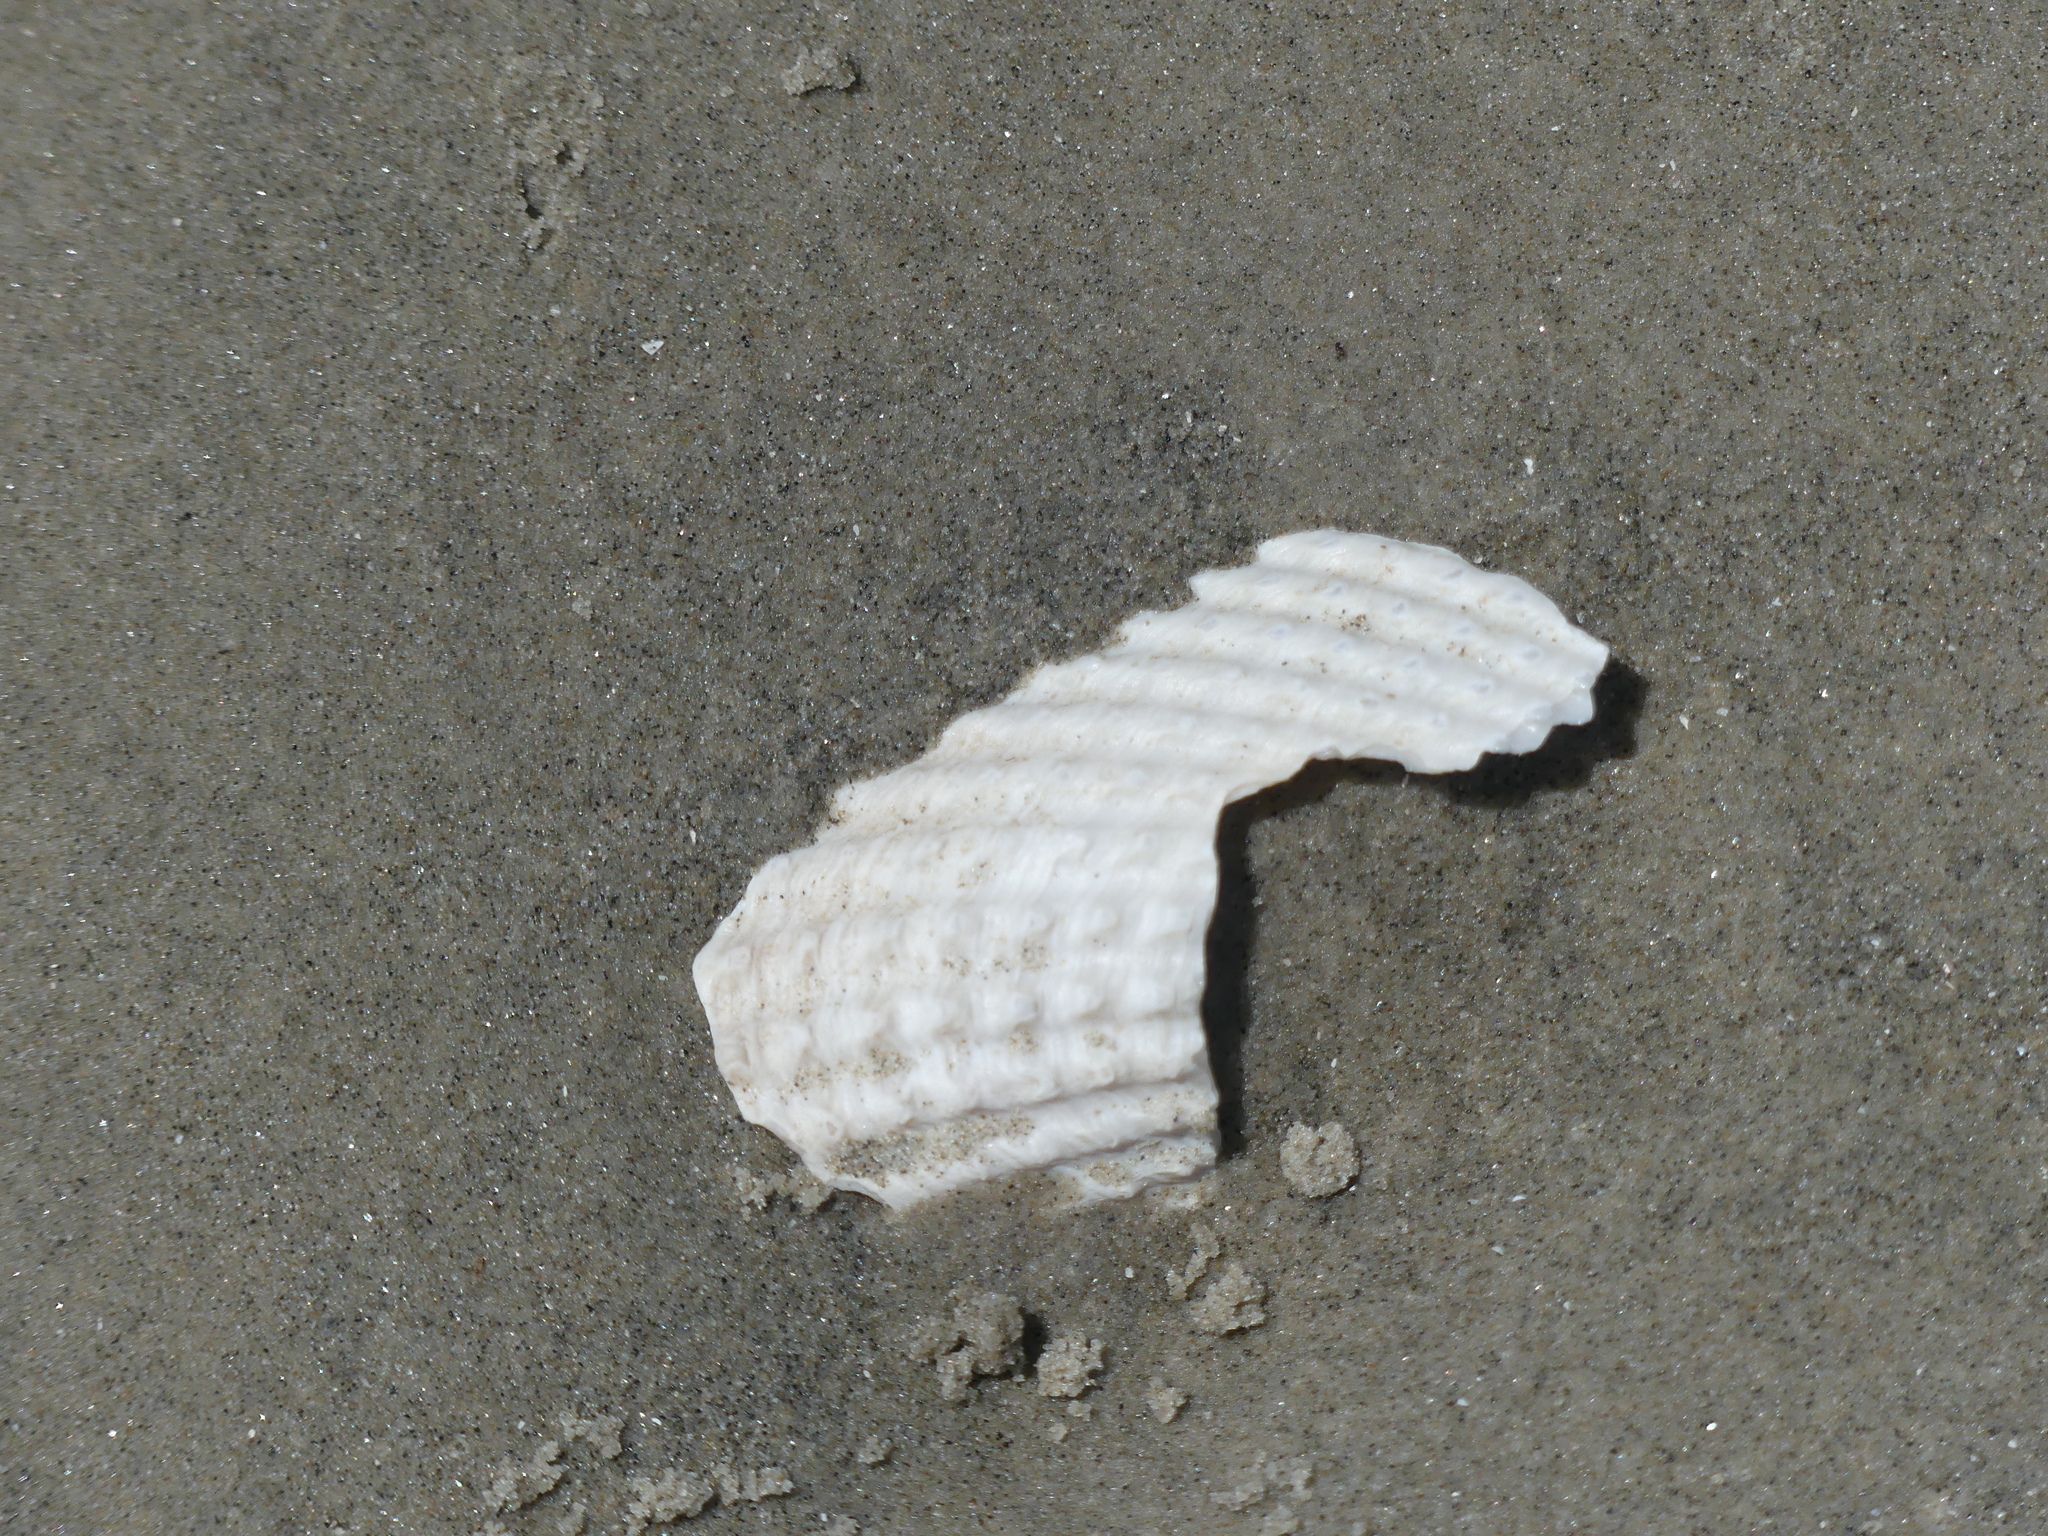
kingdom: Animalia
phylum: Mollusca
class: Bivalvia
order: Myida
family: Pholadidae
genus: Cyrtopleura
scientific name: Cyrtopleura costata
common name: Angel wing
